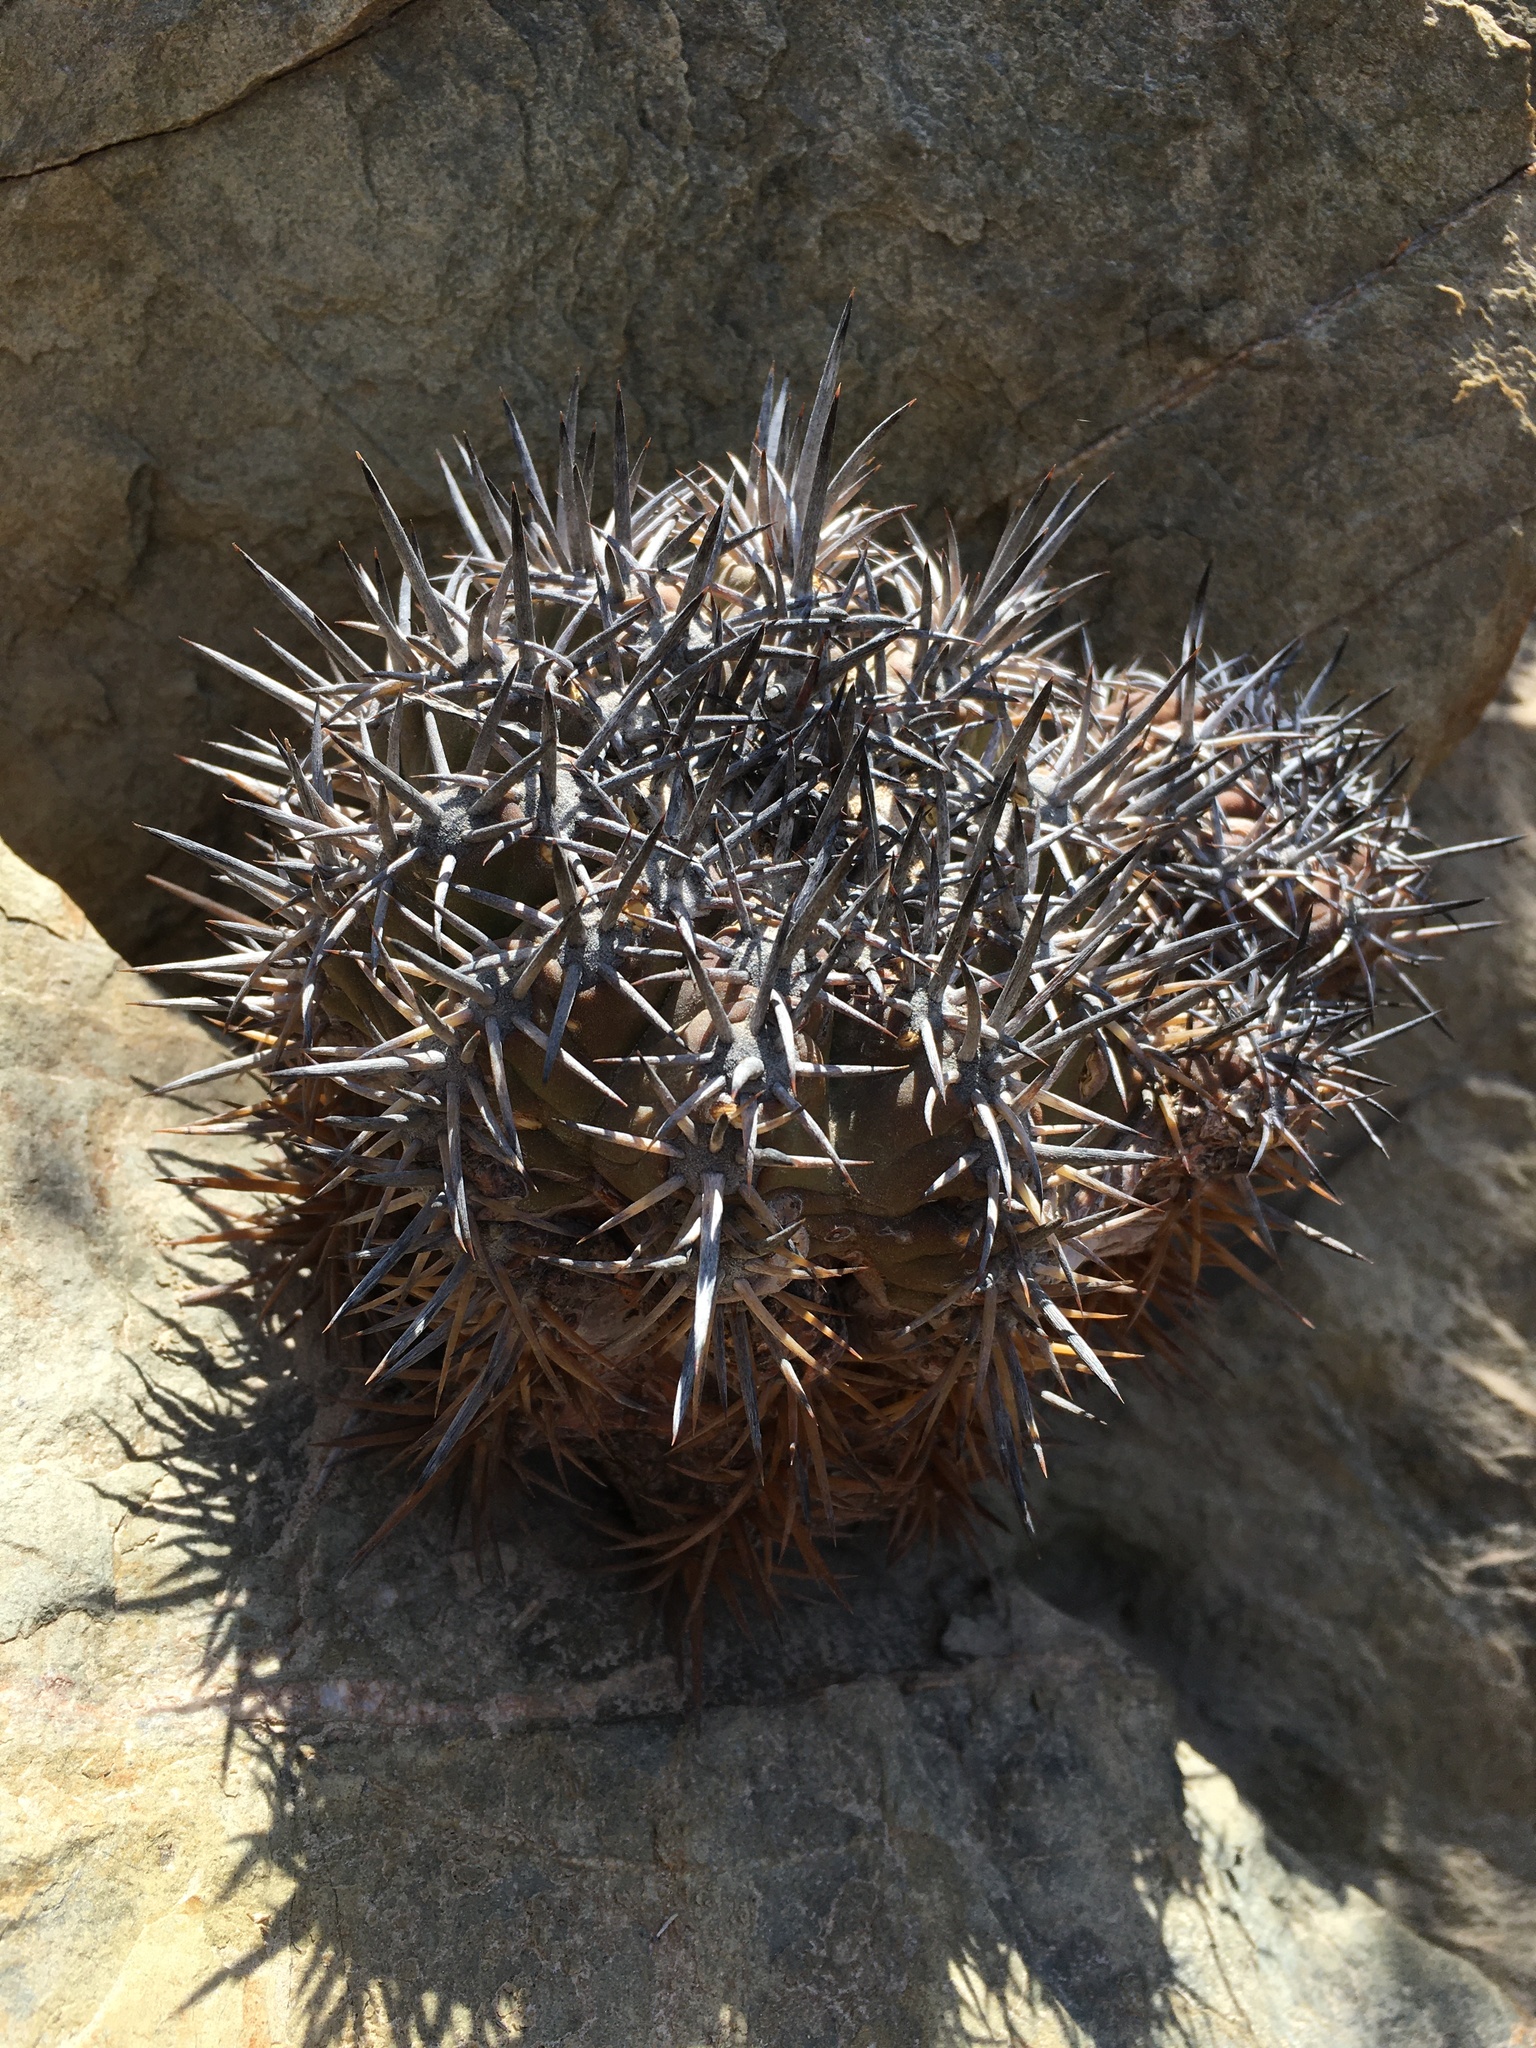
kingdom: Plantae
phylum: Tracheophyta
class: Magnoliopsida
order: Caryophyllales
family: Cactaceae
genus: Copiapoa
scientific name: Copiapoa echinoides
